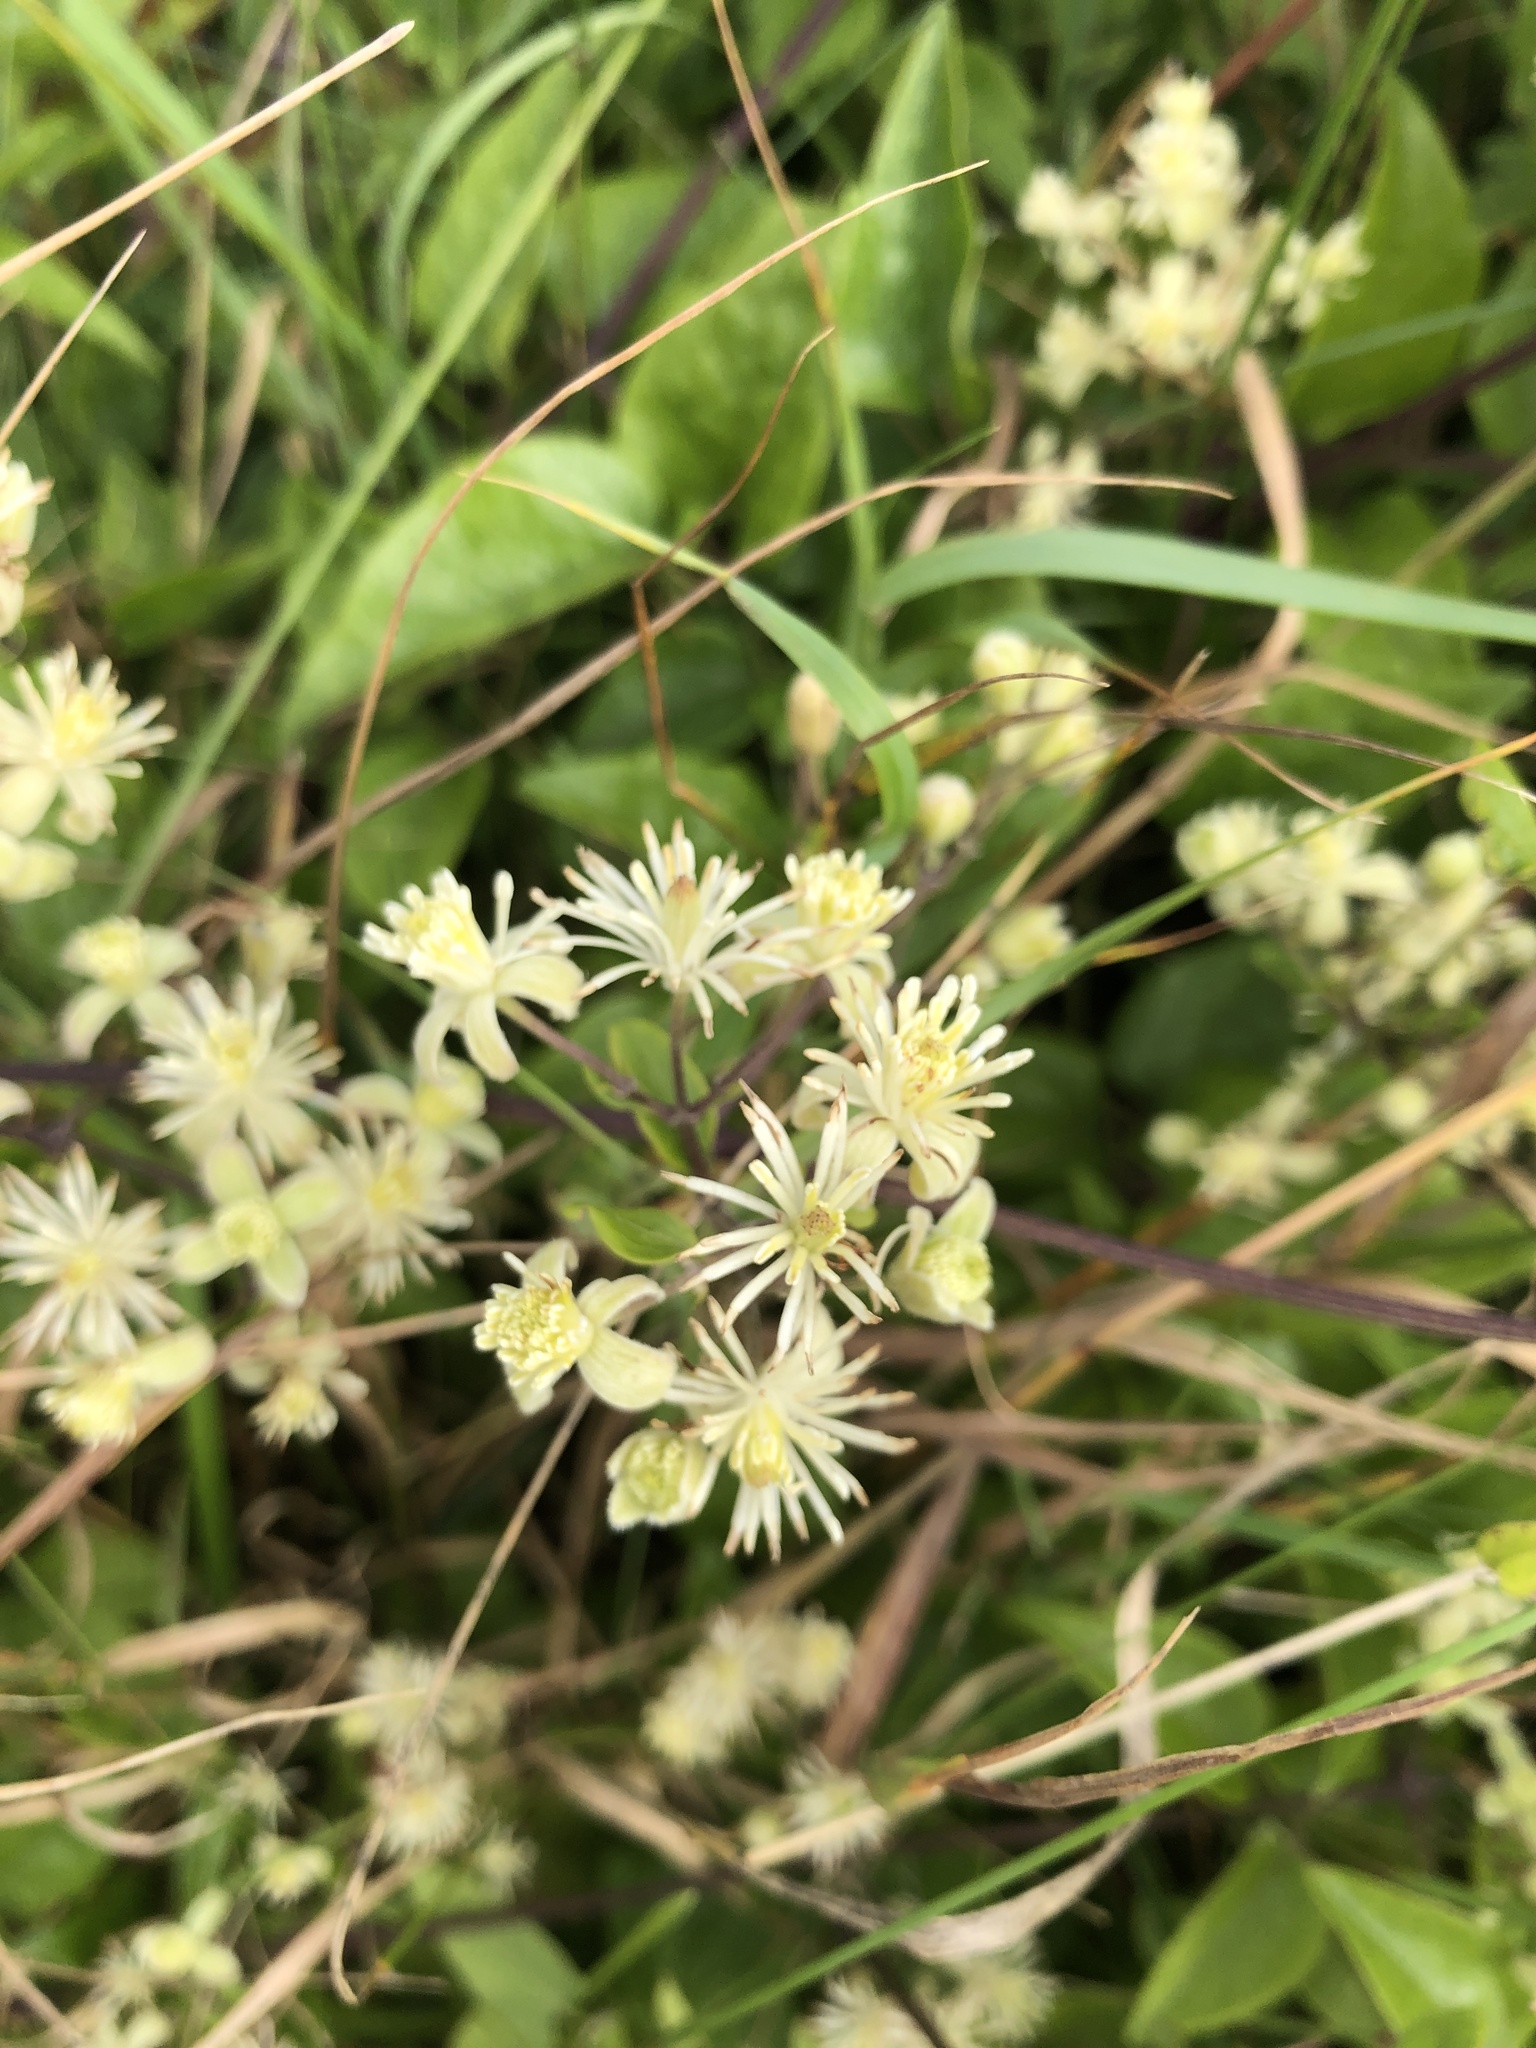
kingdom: Plantae
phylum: Tracheophyta
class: Magnoliopsida
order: Ranunculales
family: Ranunculaceae
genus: Clematis
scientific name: Clematis vitalba
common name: Evergreen clematis
